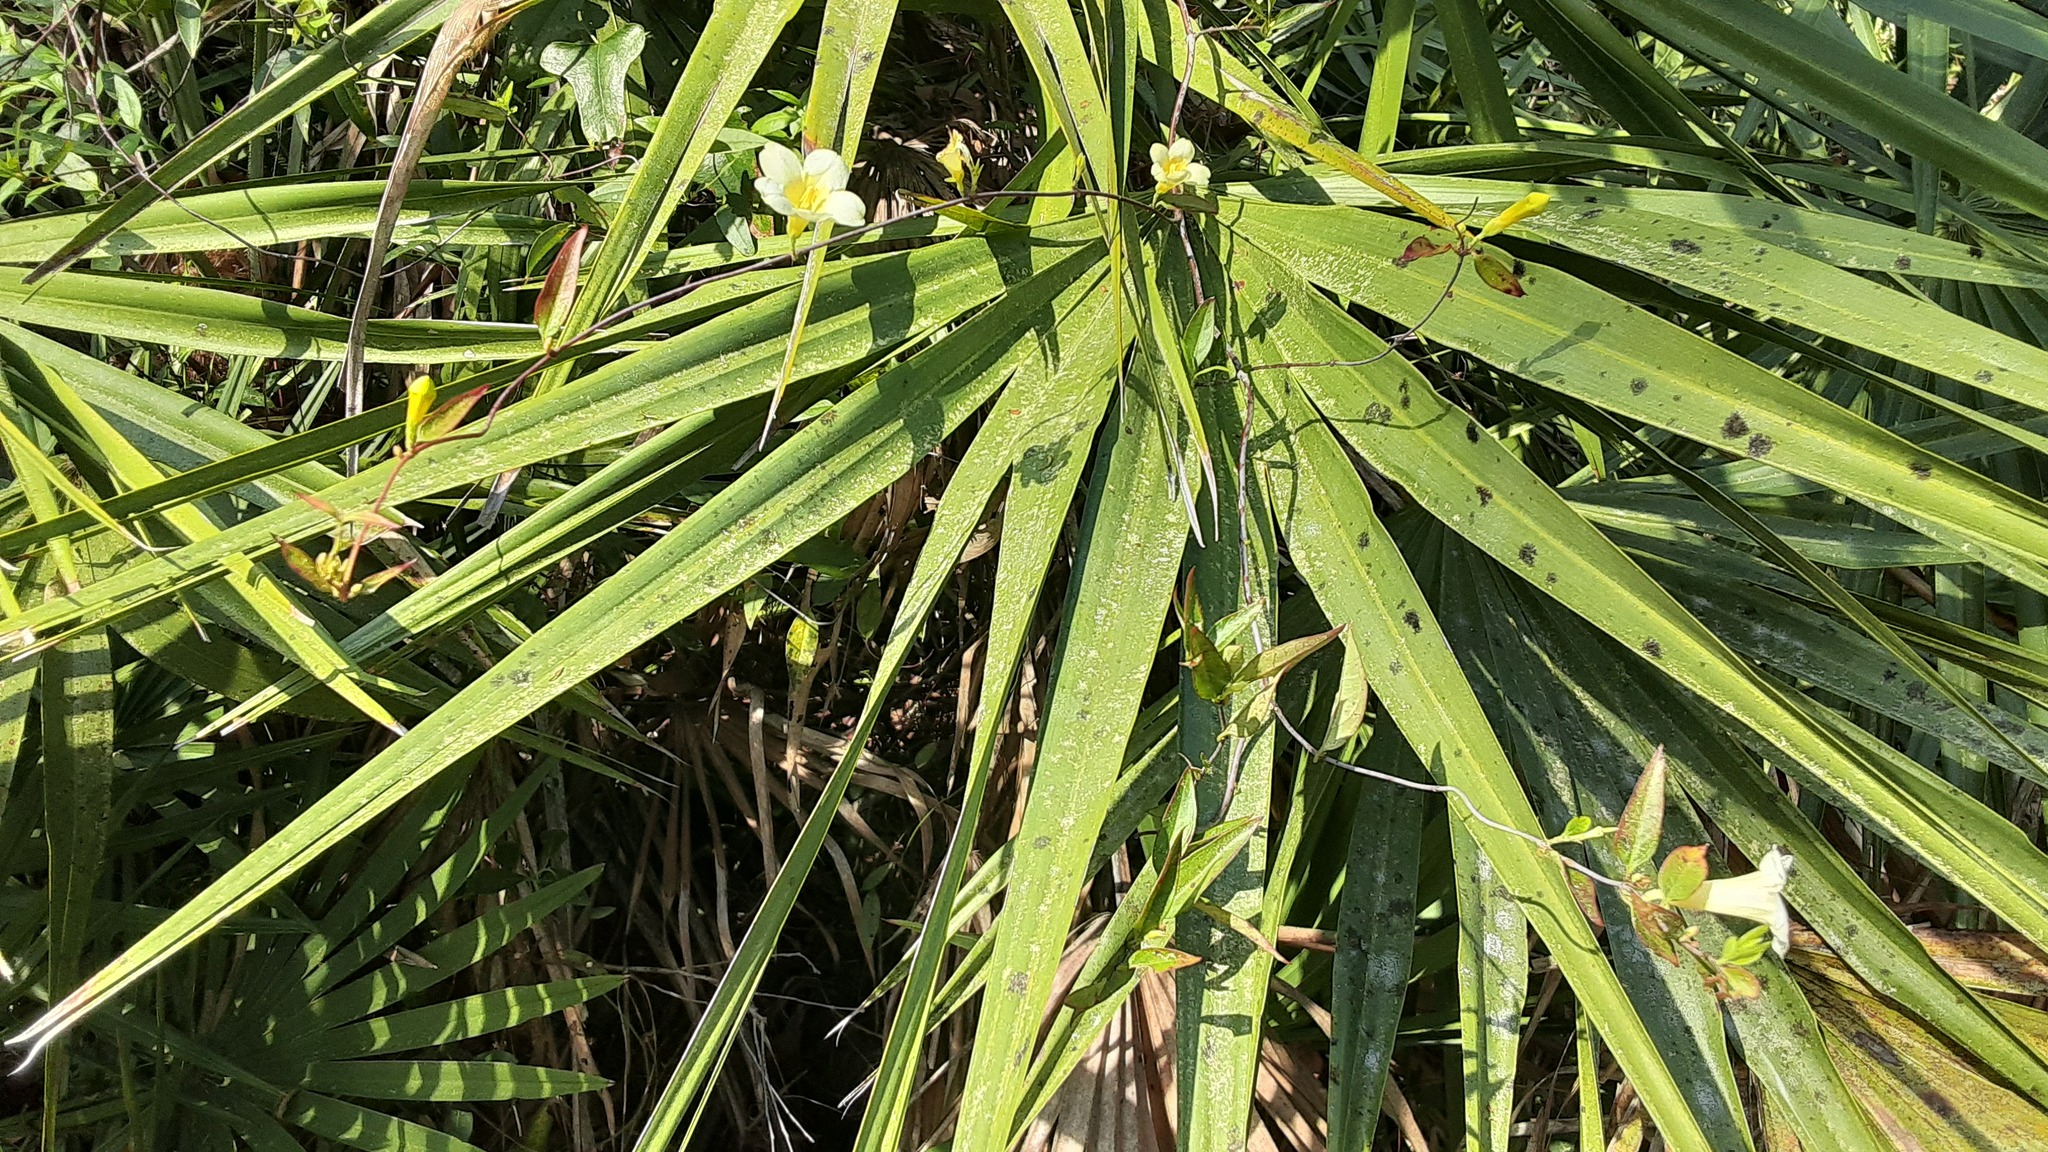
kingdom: Plantae
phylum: Tracheophyta
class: Magnoliopsida
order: Gentianales
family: Gelsemiaceae
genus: Gelsemium
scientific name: Gelsemium sempervirens
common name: Carolina-jasmine
